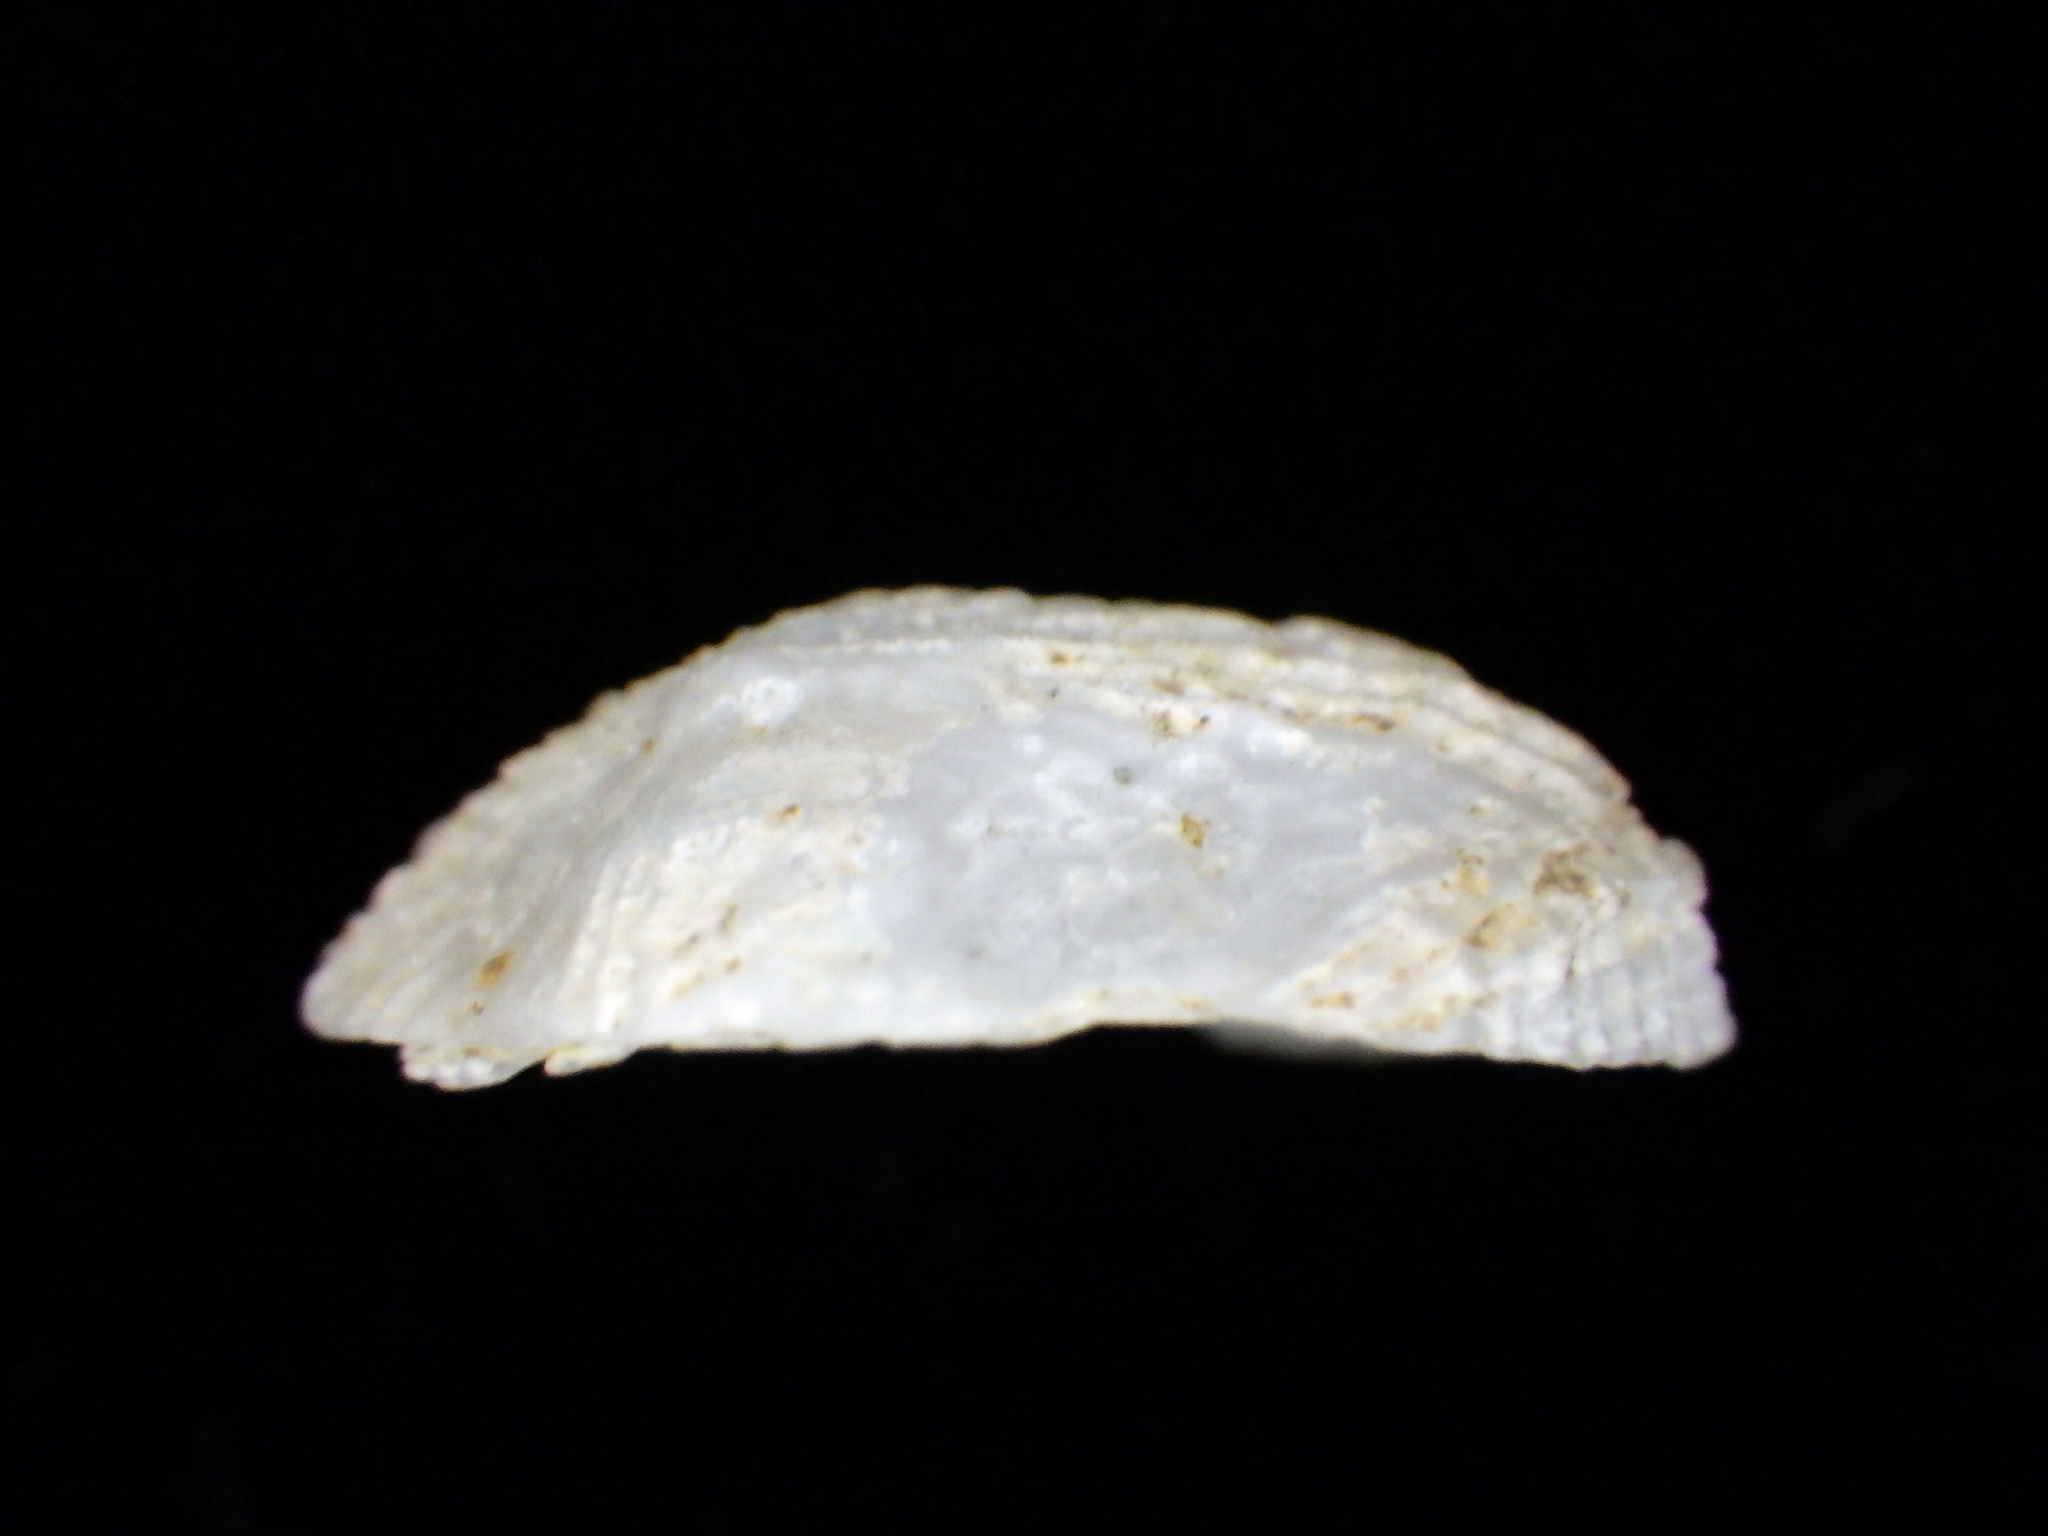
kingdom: Animalia
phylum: Mollusca
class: Gastropoda
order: Ellobiida
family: Trimusculidae
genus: Trimusculus
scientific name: Trimusculus conicus
